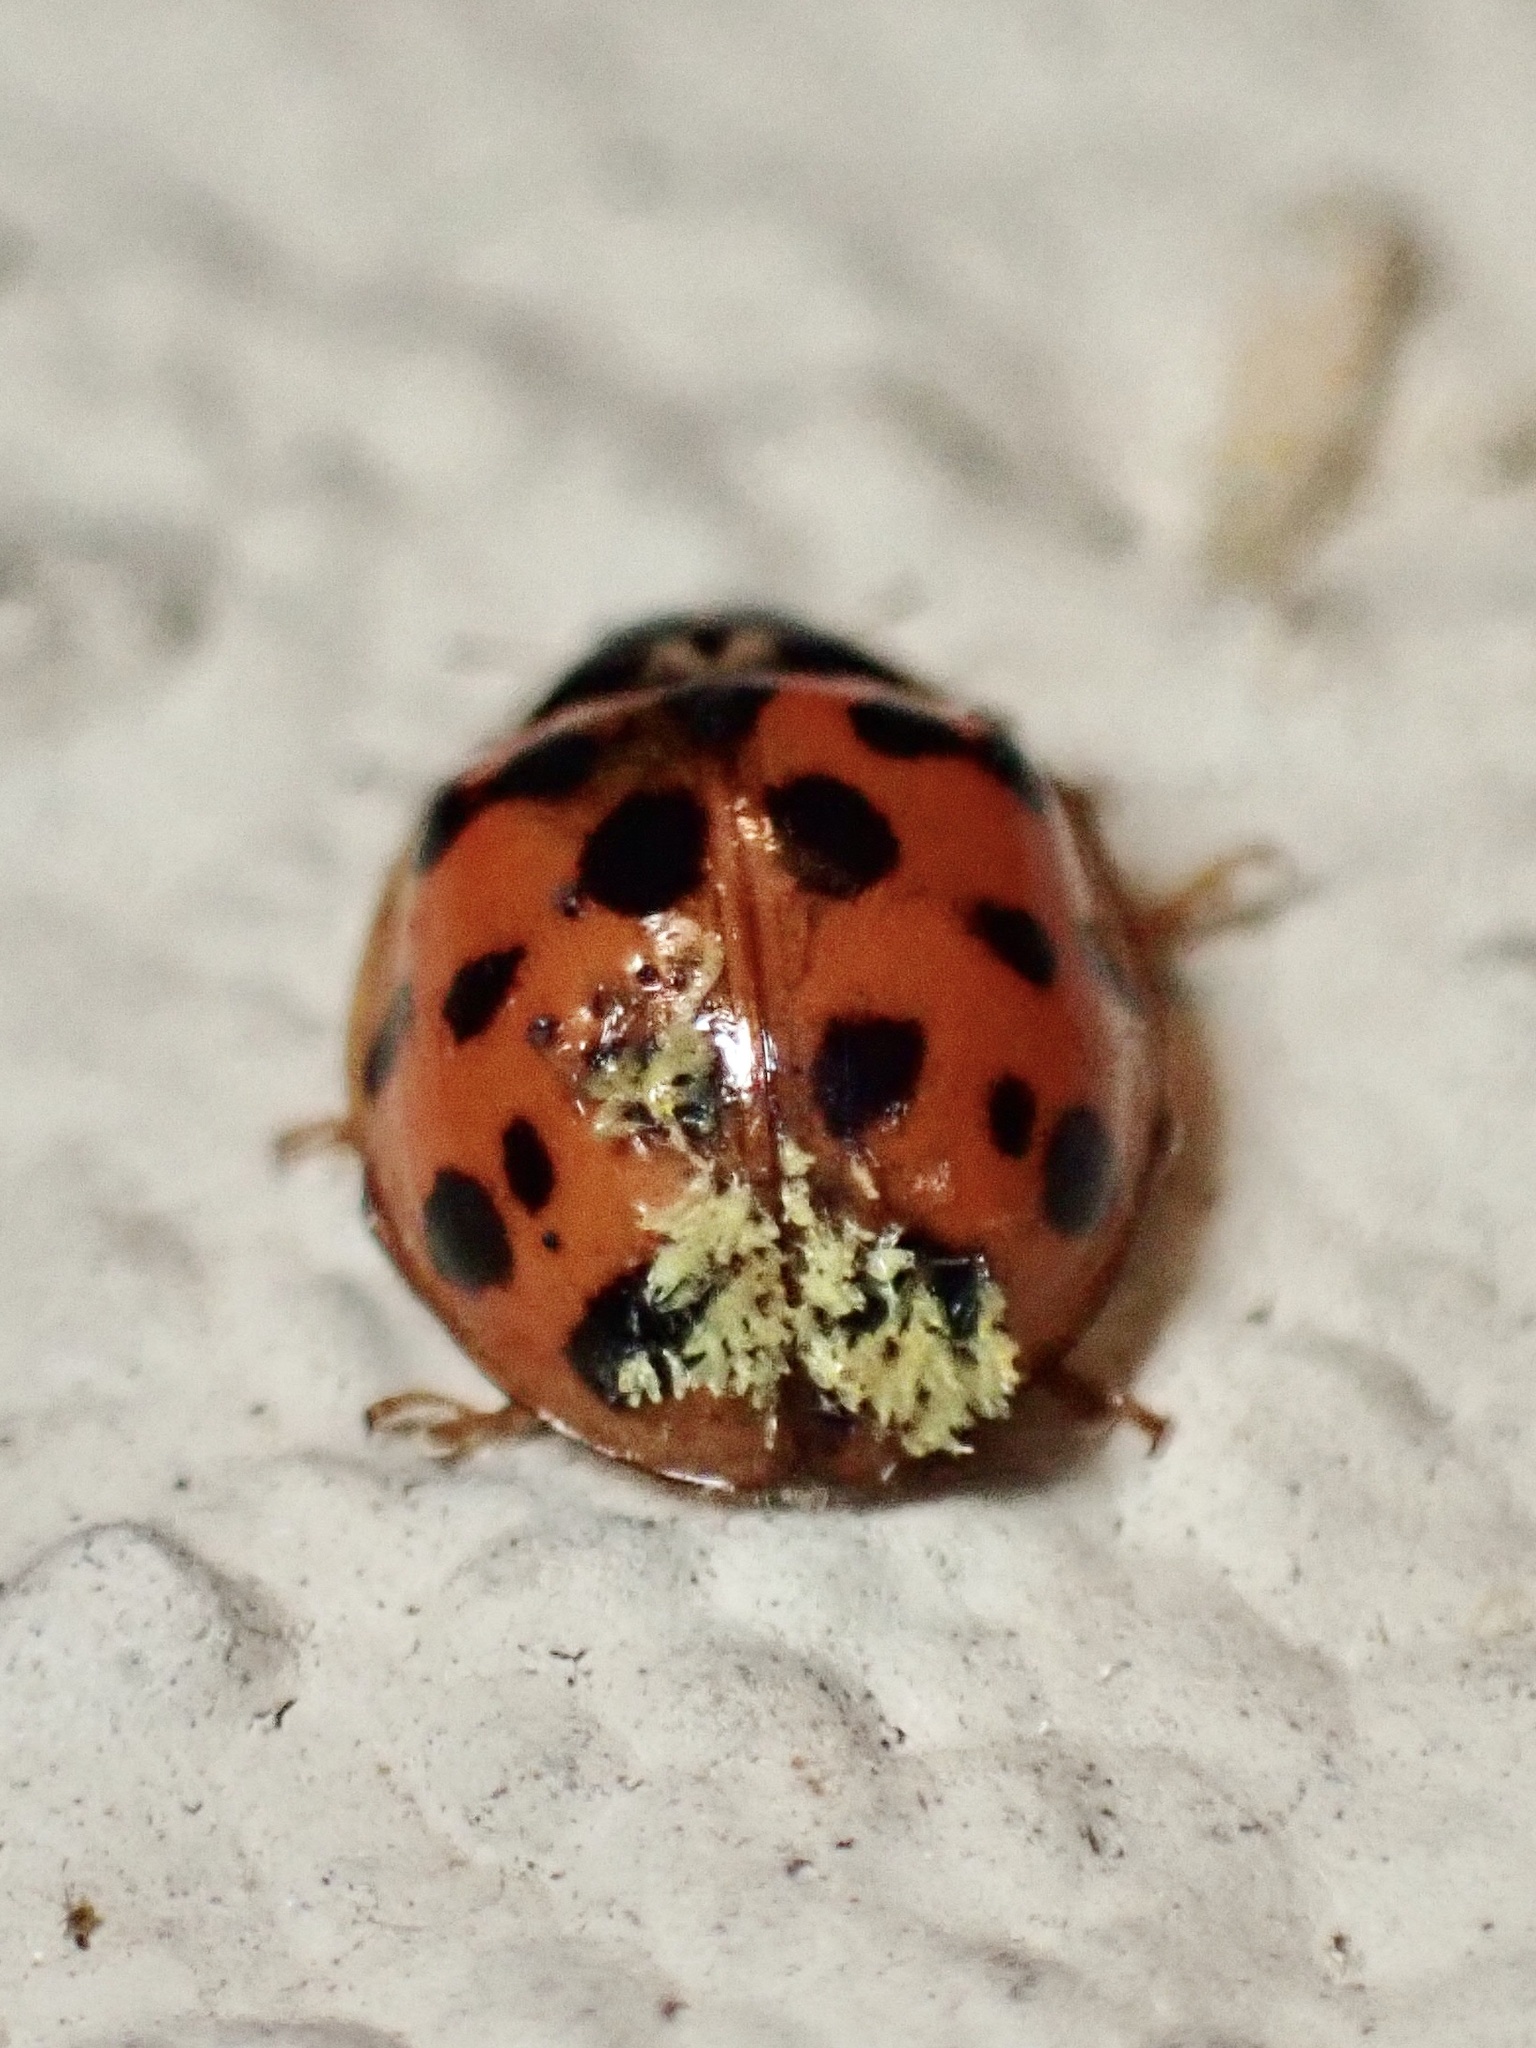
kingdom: Fungi
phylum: Ascomycota
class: Laboulbeniomycetes
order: Laboulbeniales
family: Laboulbeniaceae
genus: Hesperomyces
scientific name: Hesperomyces harmoniae
